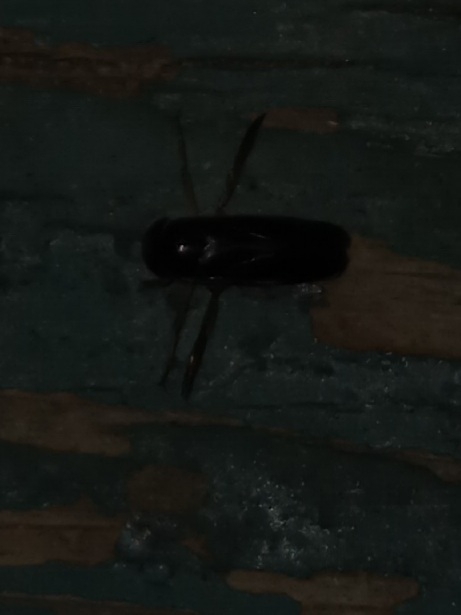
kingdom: Animalia
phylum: Arthropoda
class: Insecta
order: Hemiptera
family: Corixidae
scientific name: Corixidae
